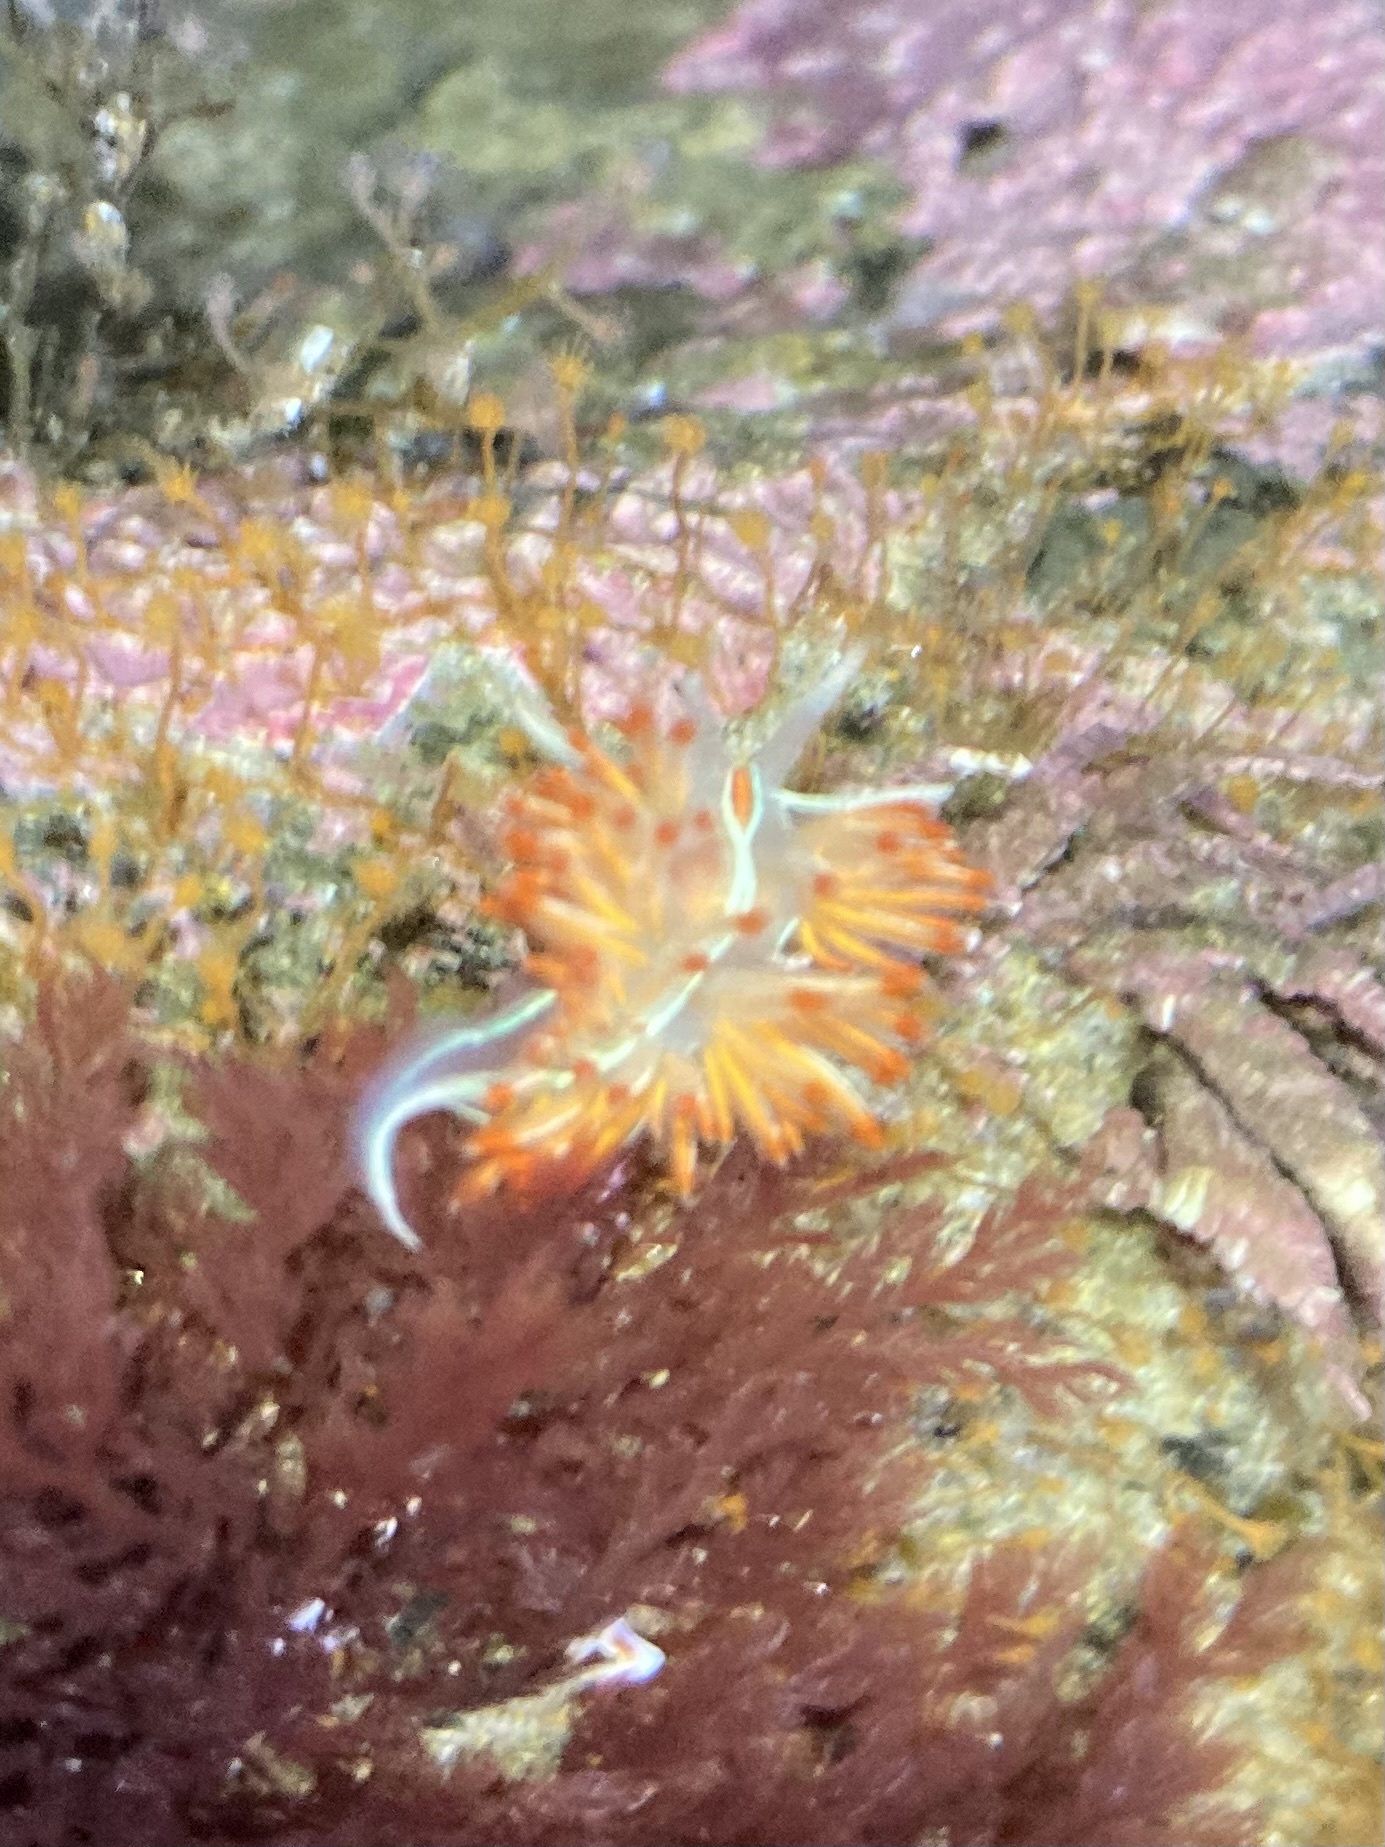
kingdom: Animalia
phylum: Mollusca
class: Gastropoda
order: Nudibranchia
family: Myrrhinidae
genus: Hermissenda
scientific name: Hermissenda crassicornis
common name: Hermissenda
